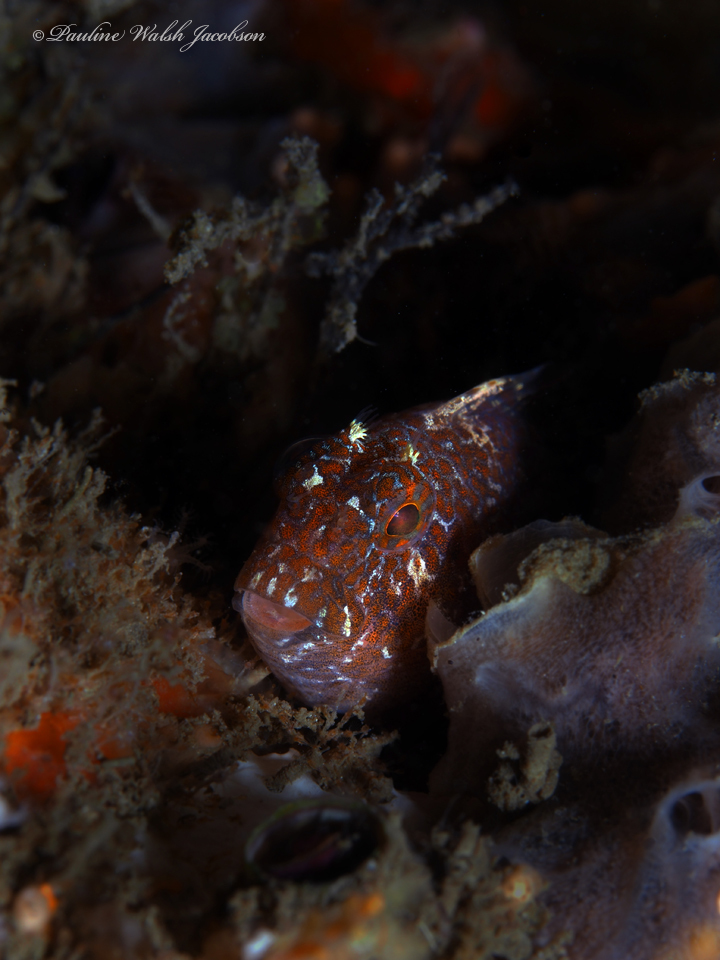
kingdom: Animalia
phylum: Chordata
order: Perciformes
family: Blenniidae
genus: Hypleurochilus
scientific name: Hypleurochilus bermudensis
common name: Barred blenny
